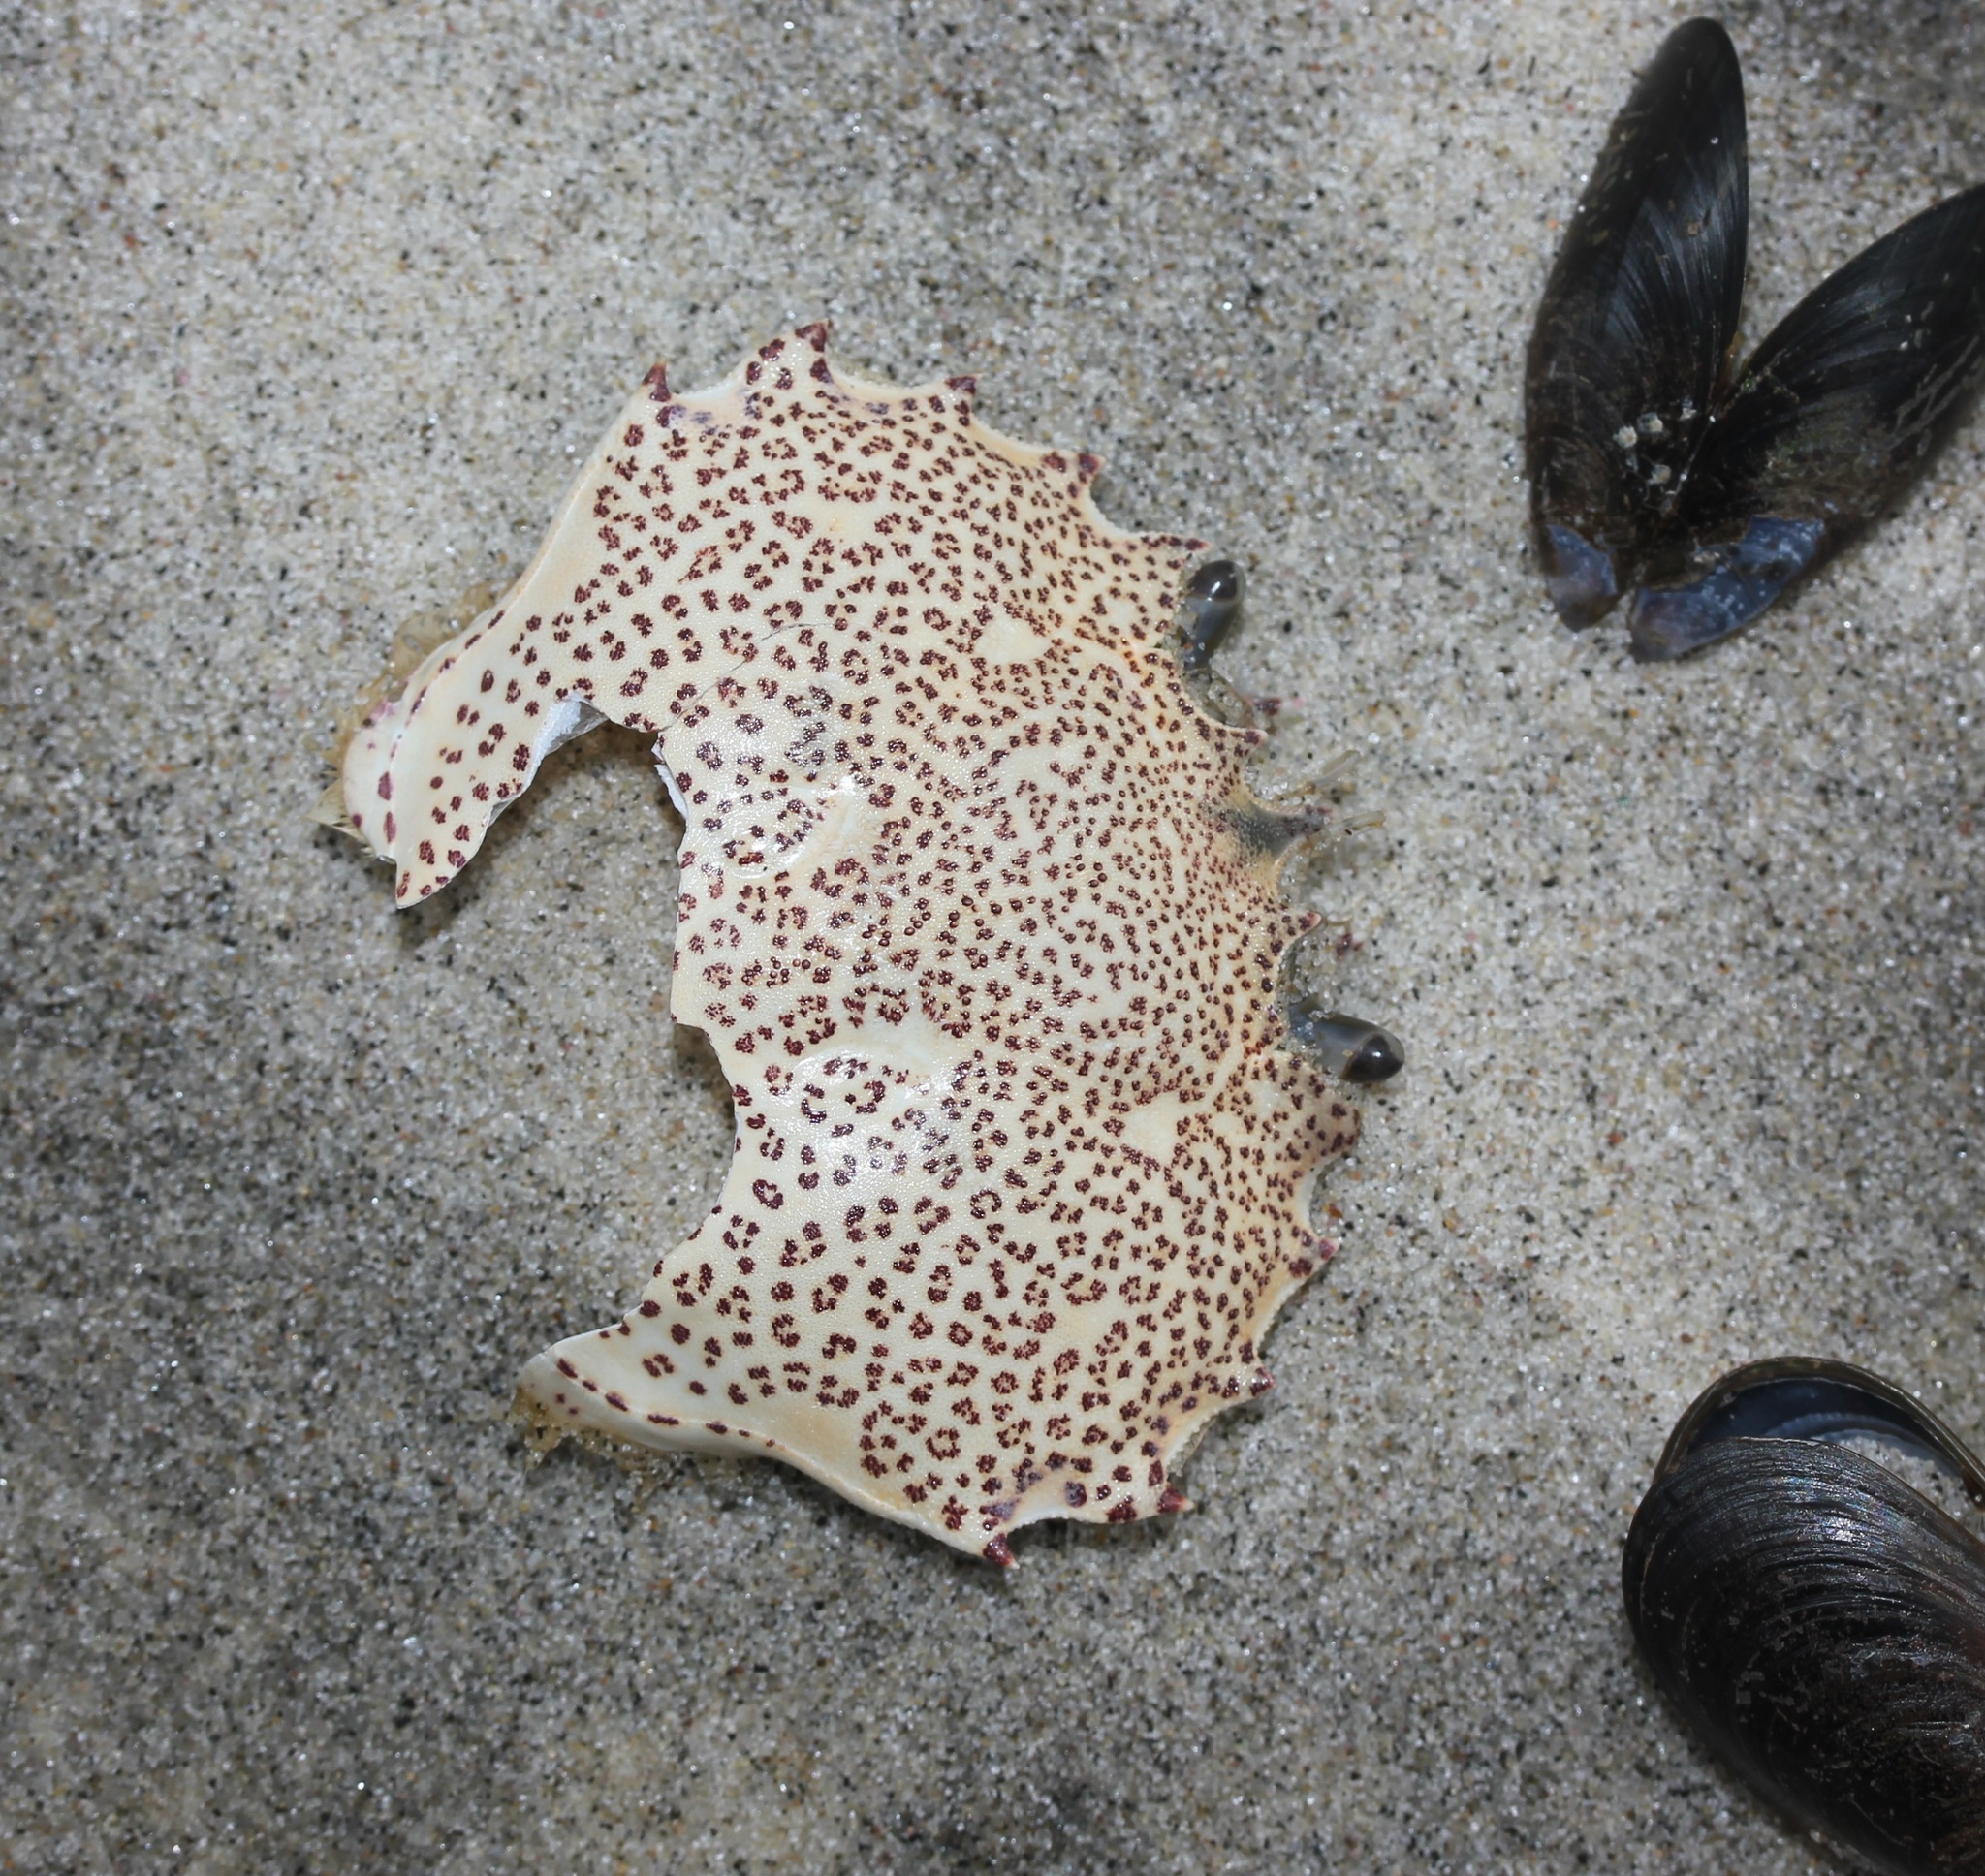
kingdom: Animalia
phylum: Arthropoda
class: Malacostraca
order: Decapoda
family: Ovalipidae
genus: Ovalipes
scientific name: Ovalipes ocellatus
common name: Lady crab
